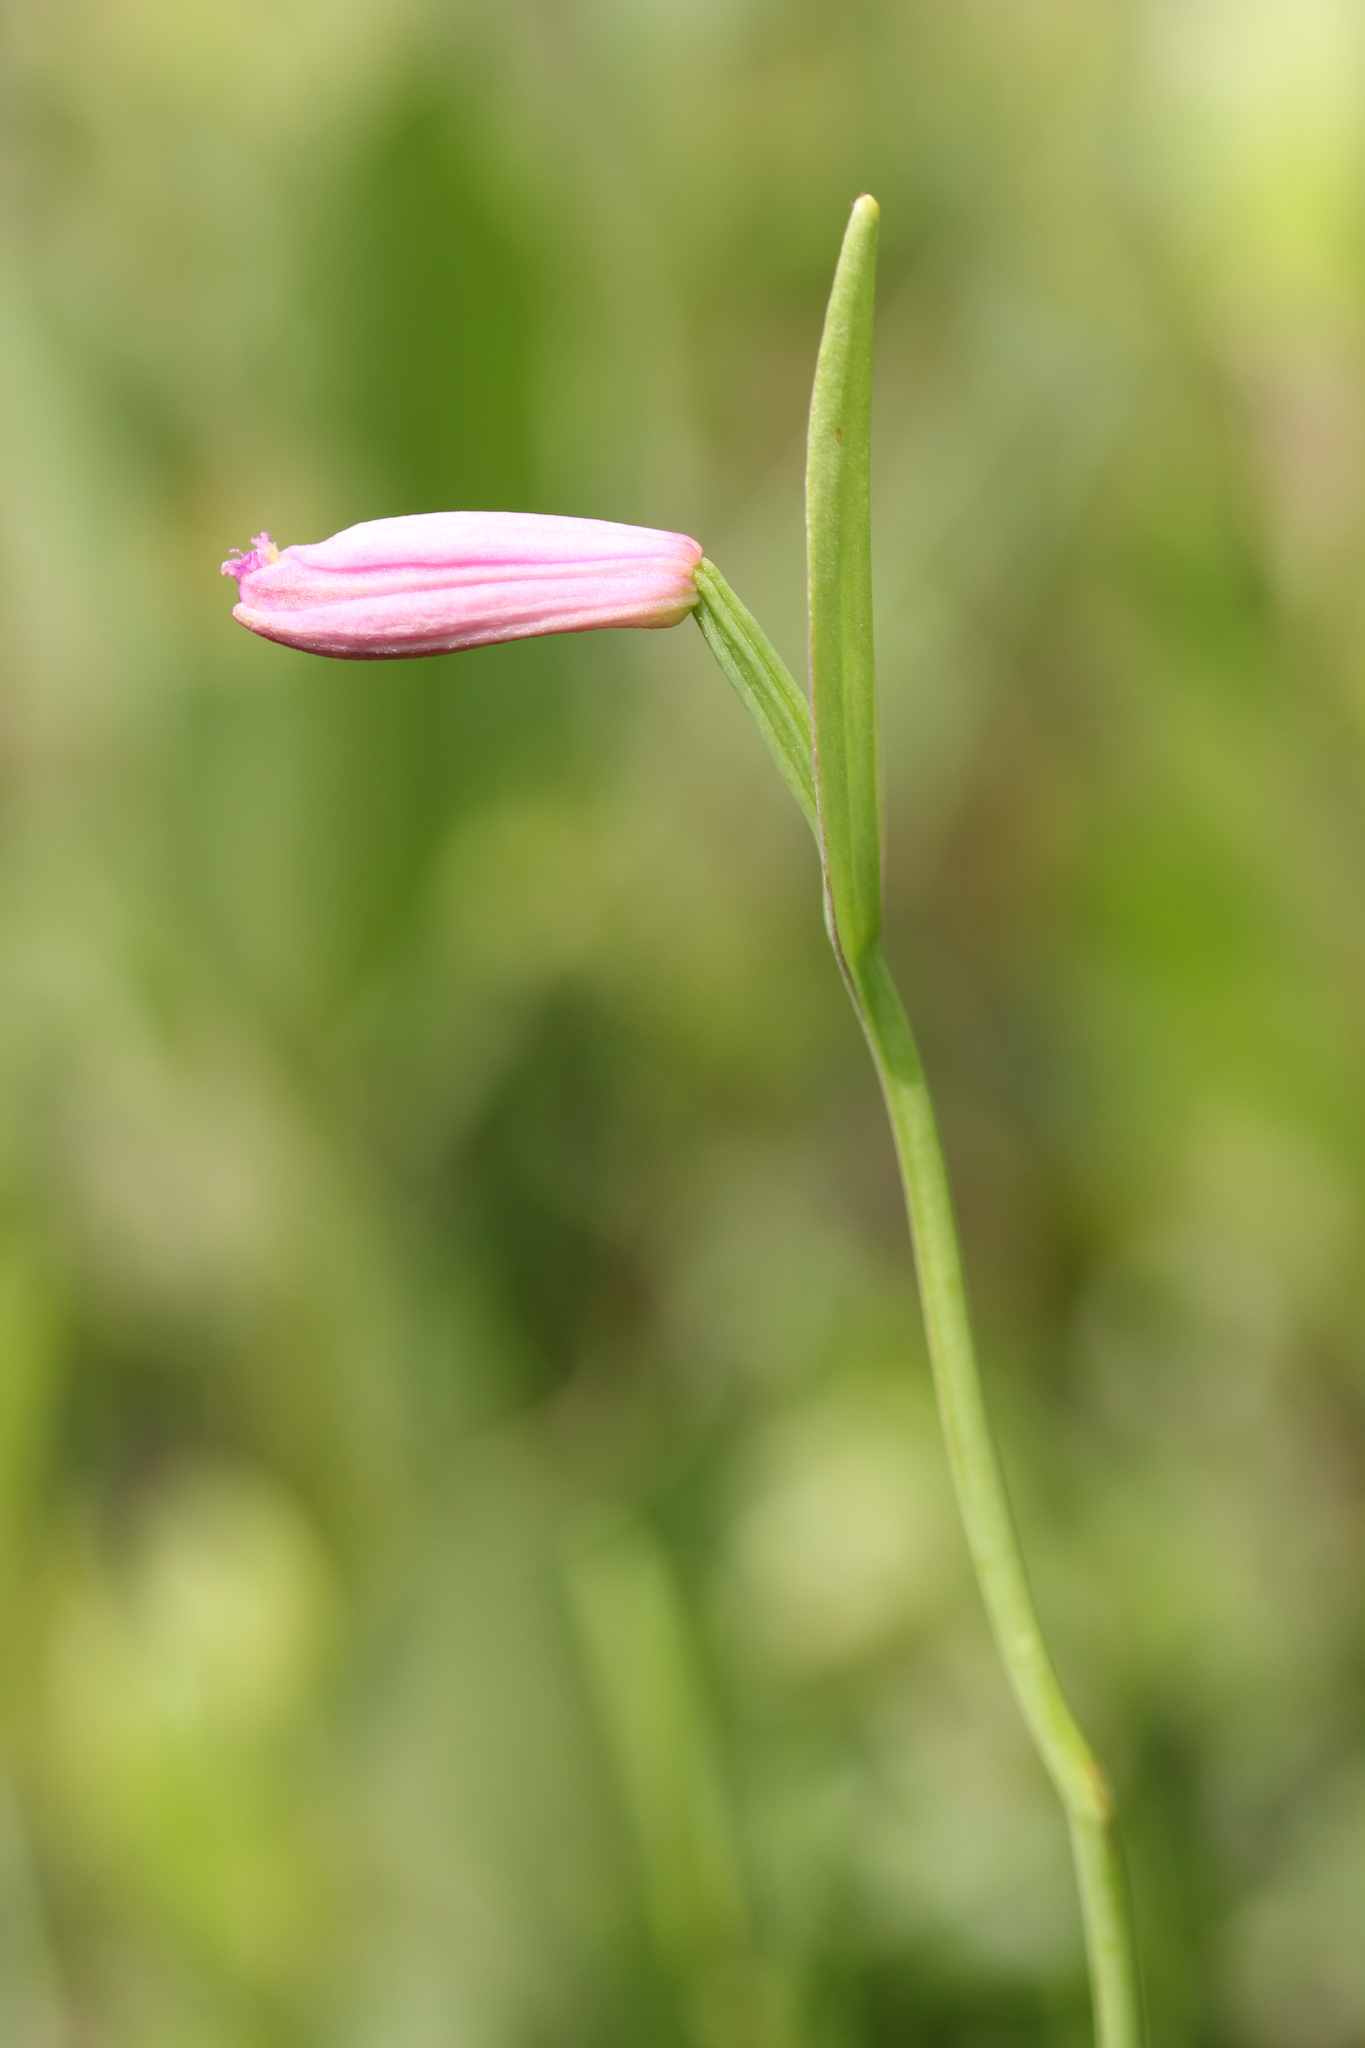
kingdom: Plantae
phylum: Tracheophyta
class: Liliopsida
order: Asparagales
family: Orchidaceae
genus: Pogonia
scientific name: Pogonia ophioglossoides
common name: Rose pogonia
